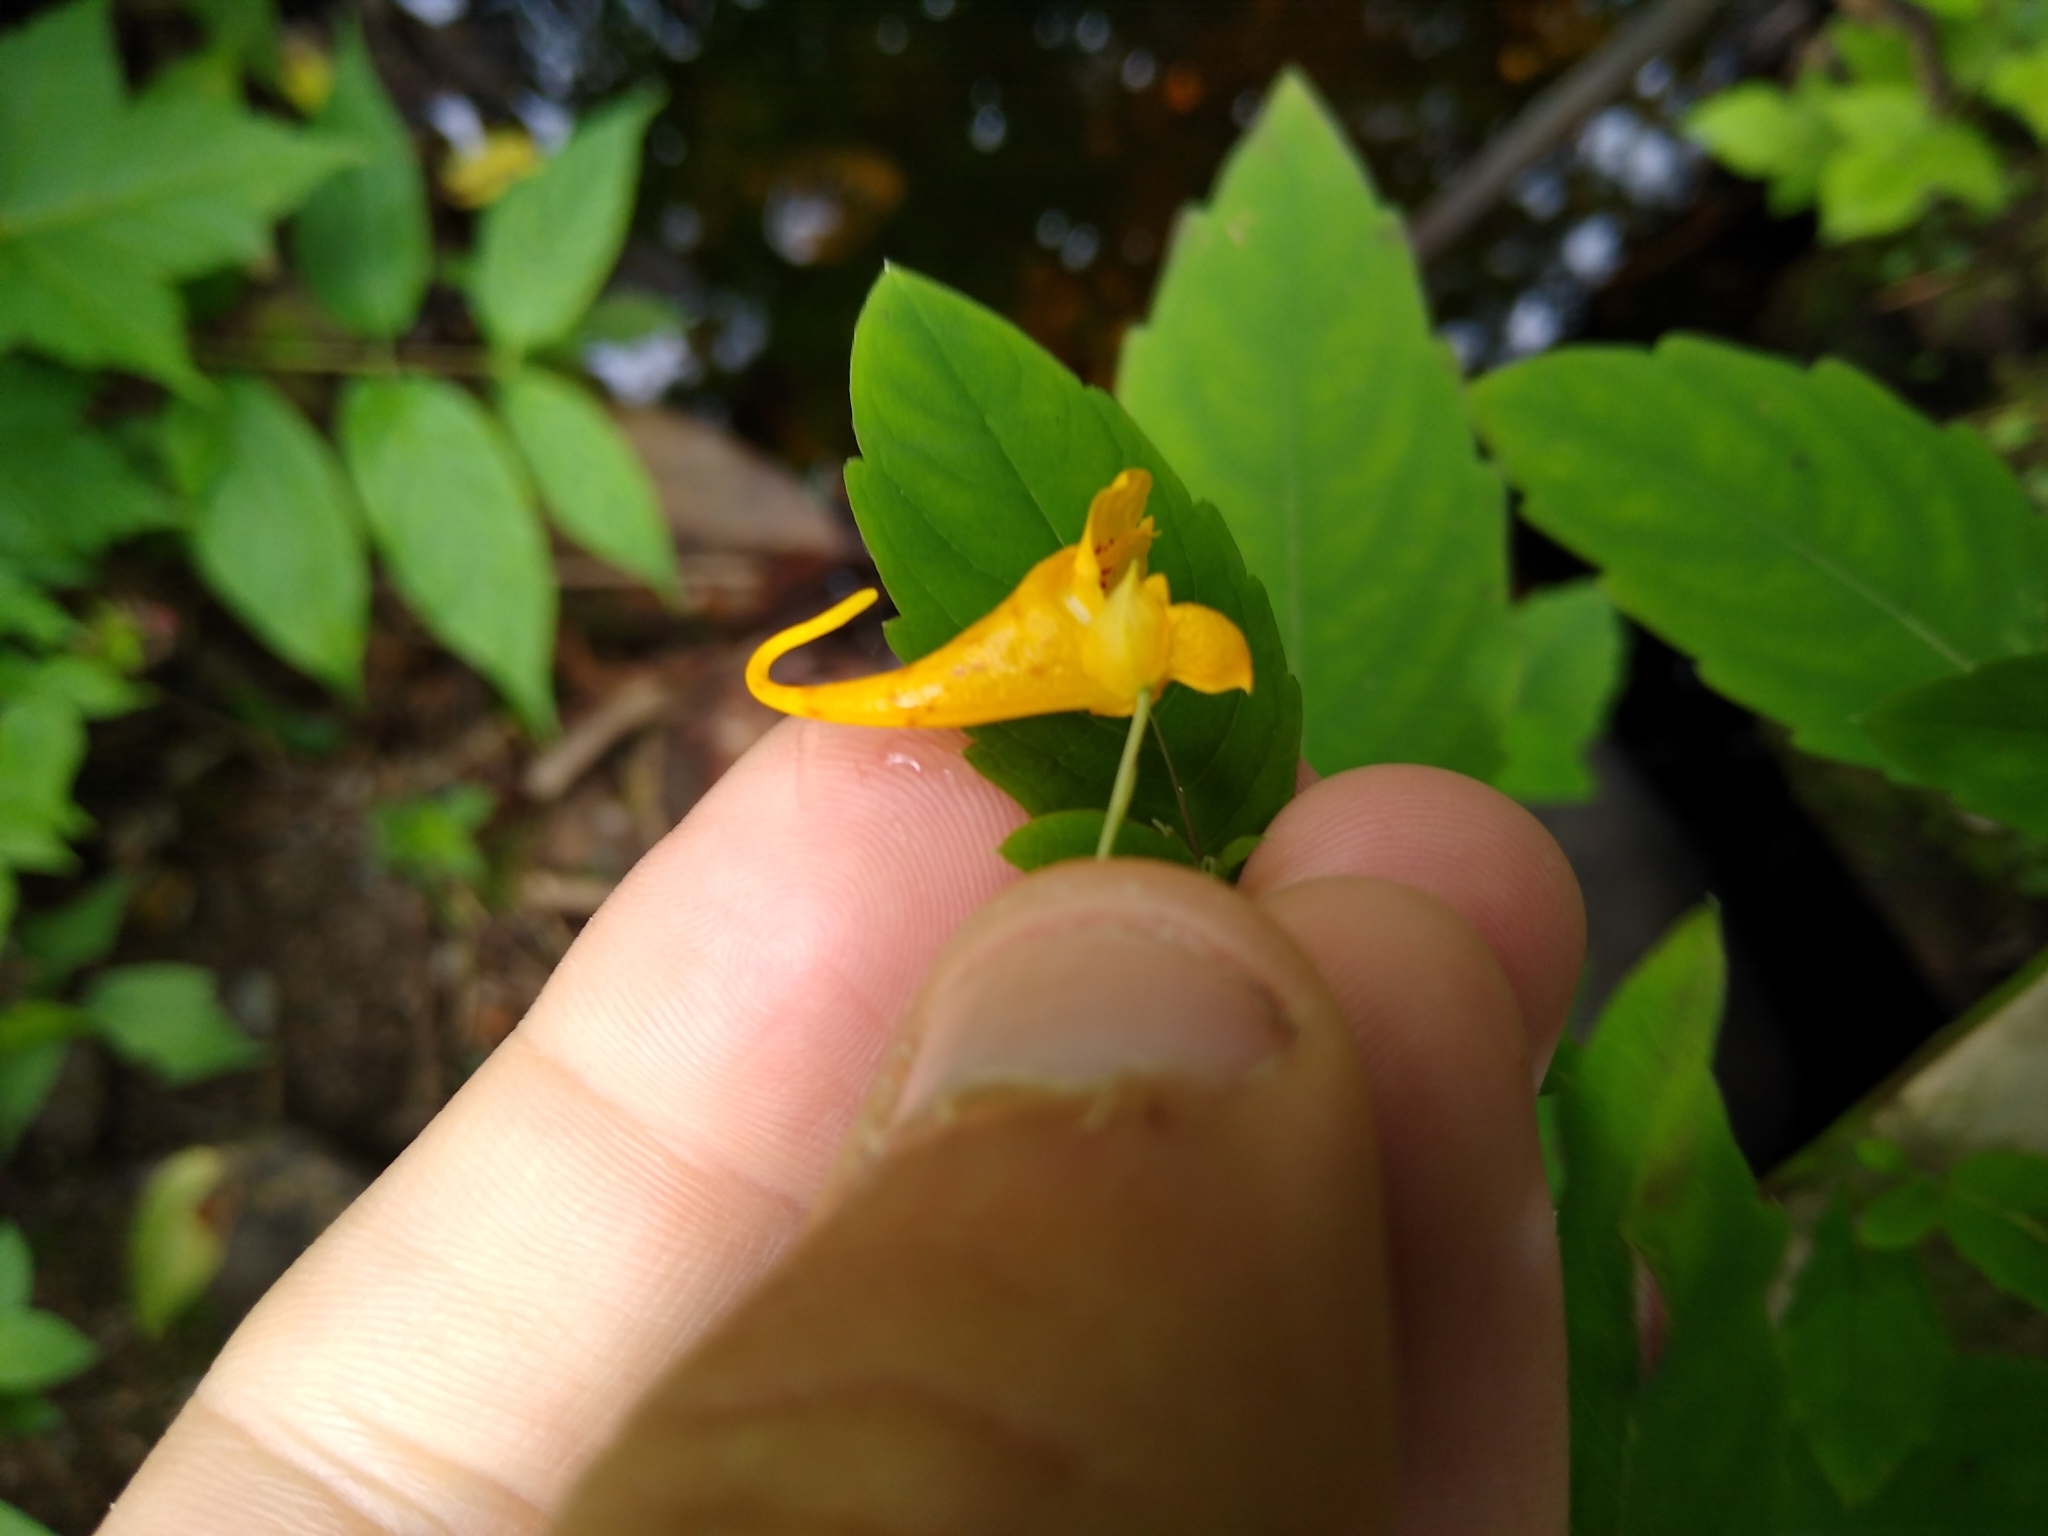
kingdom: Plantae
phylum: Tracheophyta
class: Magnoliopsida
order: Ericales
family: Balsaminaceae
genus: Impatiens
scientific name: Impatiens capensis
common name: Orange balsam
